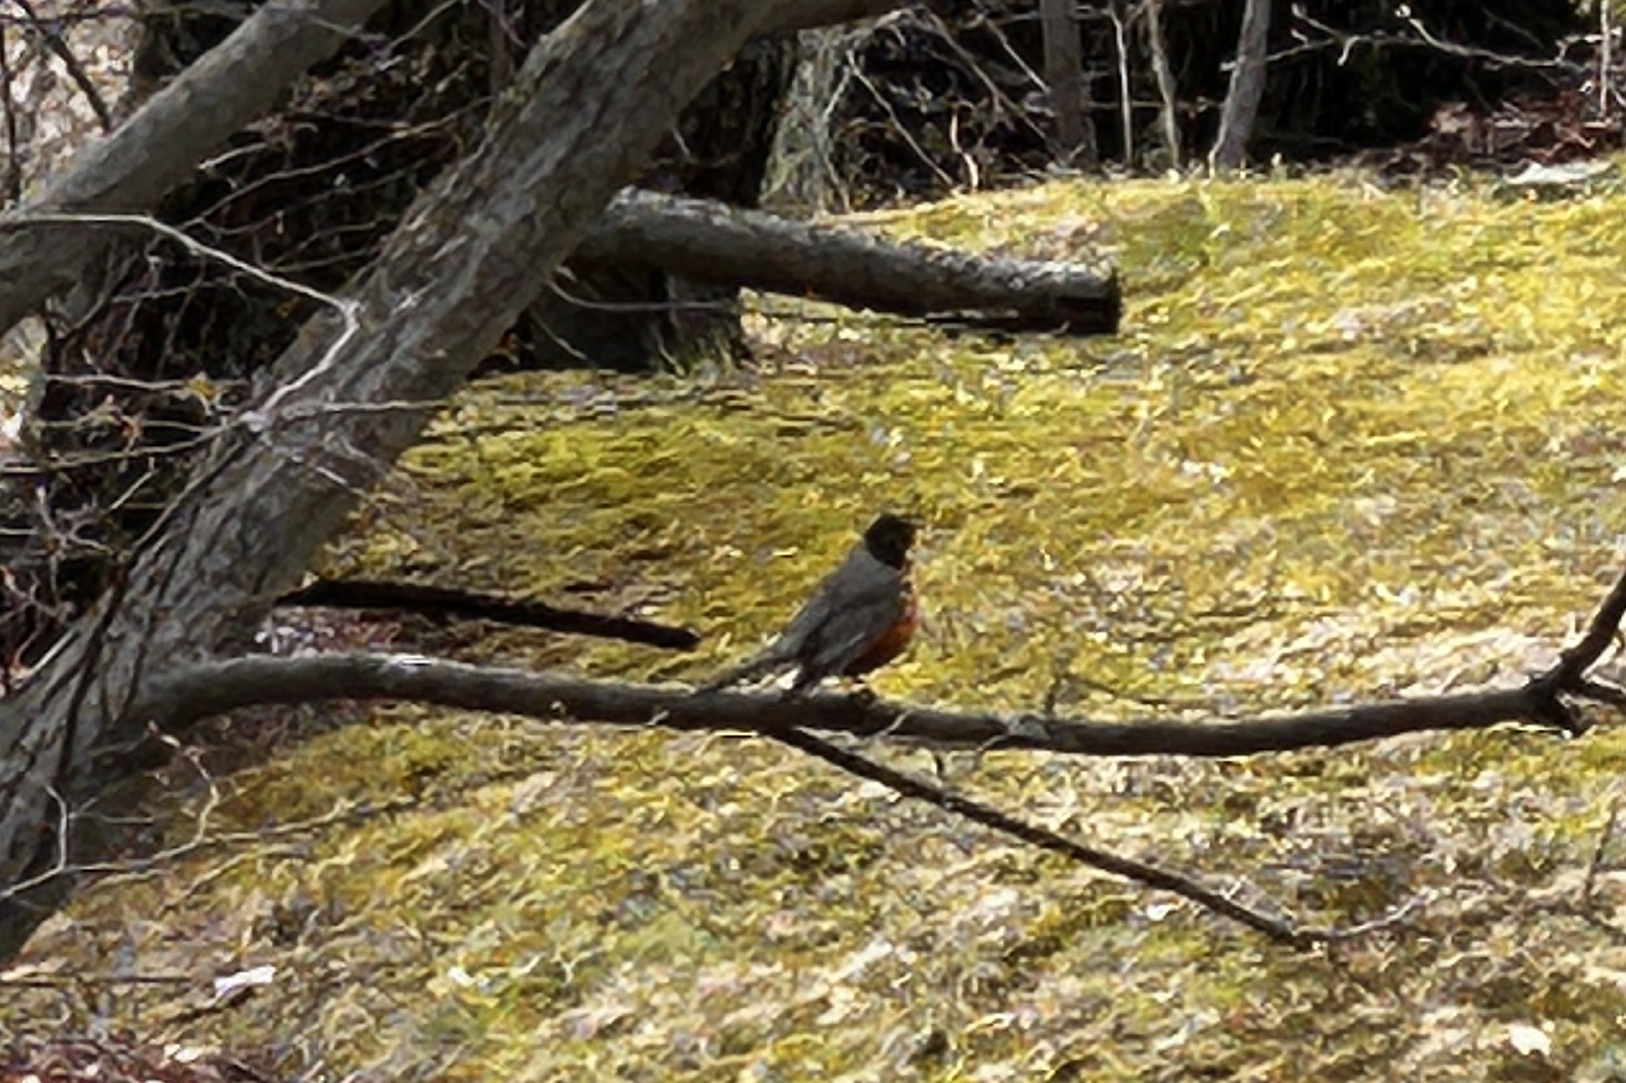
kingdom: Animalia
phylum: Chordata
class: Aves
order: Passeriformes
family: Turdidae
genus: Turdus
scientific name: Turdus migratorius
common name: American robin
